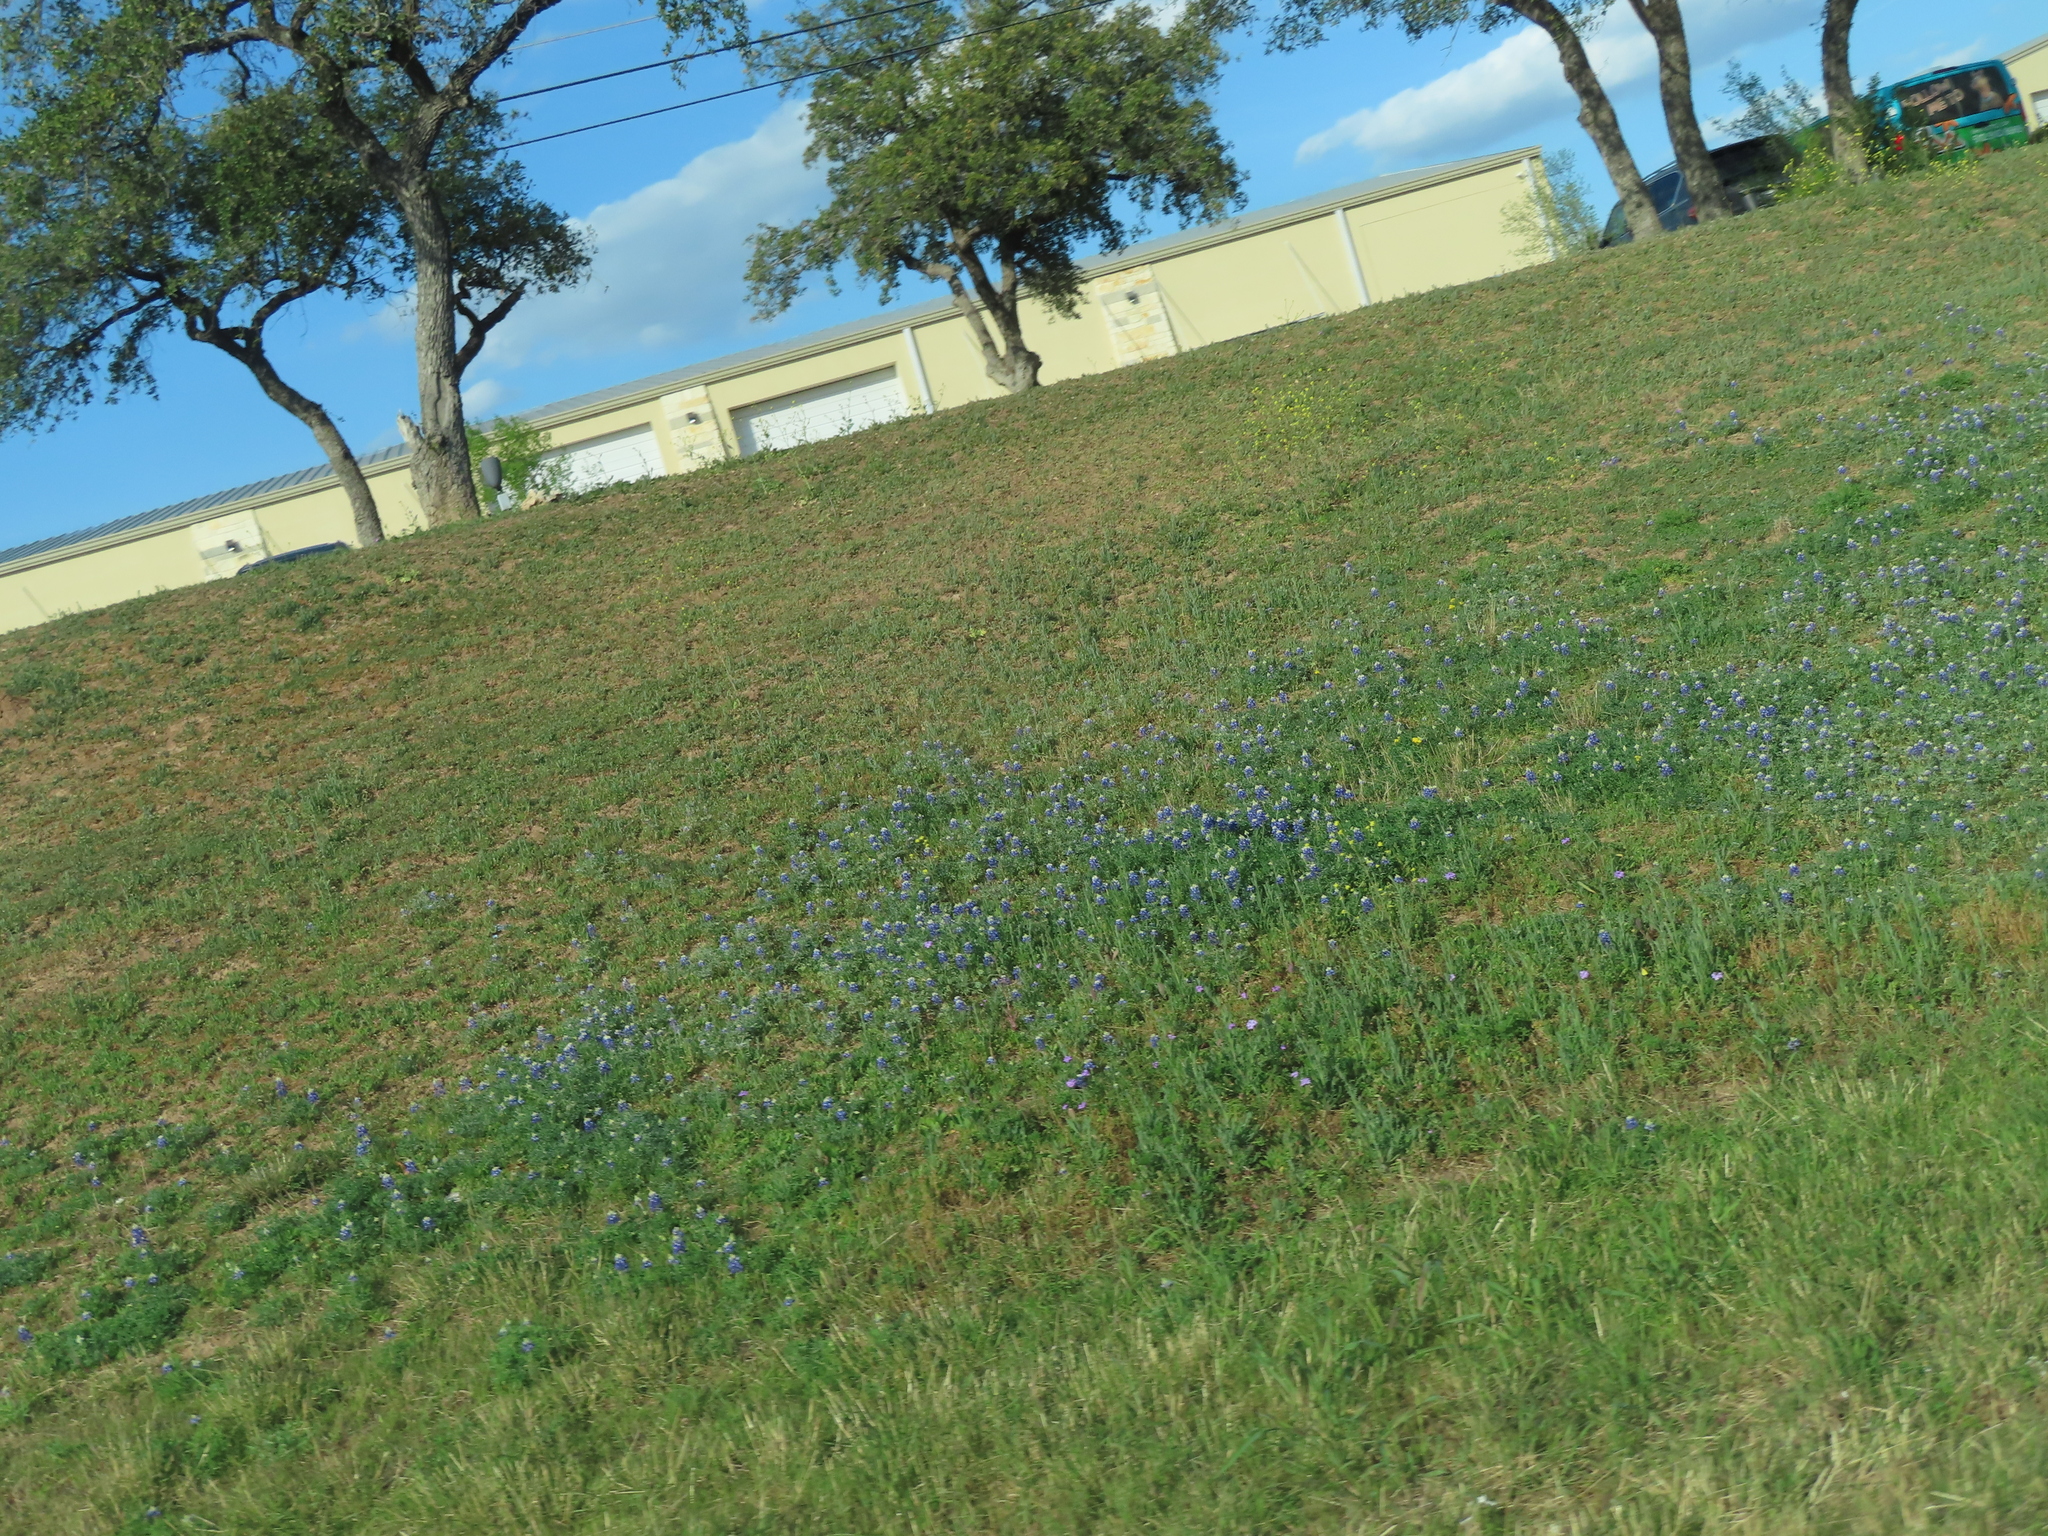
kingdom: Plantae
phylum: Tracheophyta
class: Magnoliopsida
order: Fabales
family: Fabaceae
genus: Lupinus
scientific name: Lupinus texensis
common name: Texas bluebonnet
